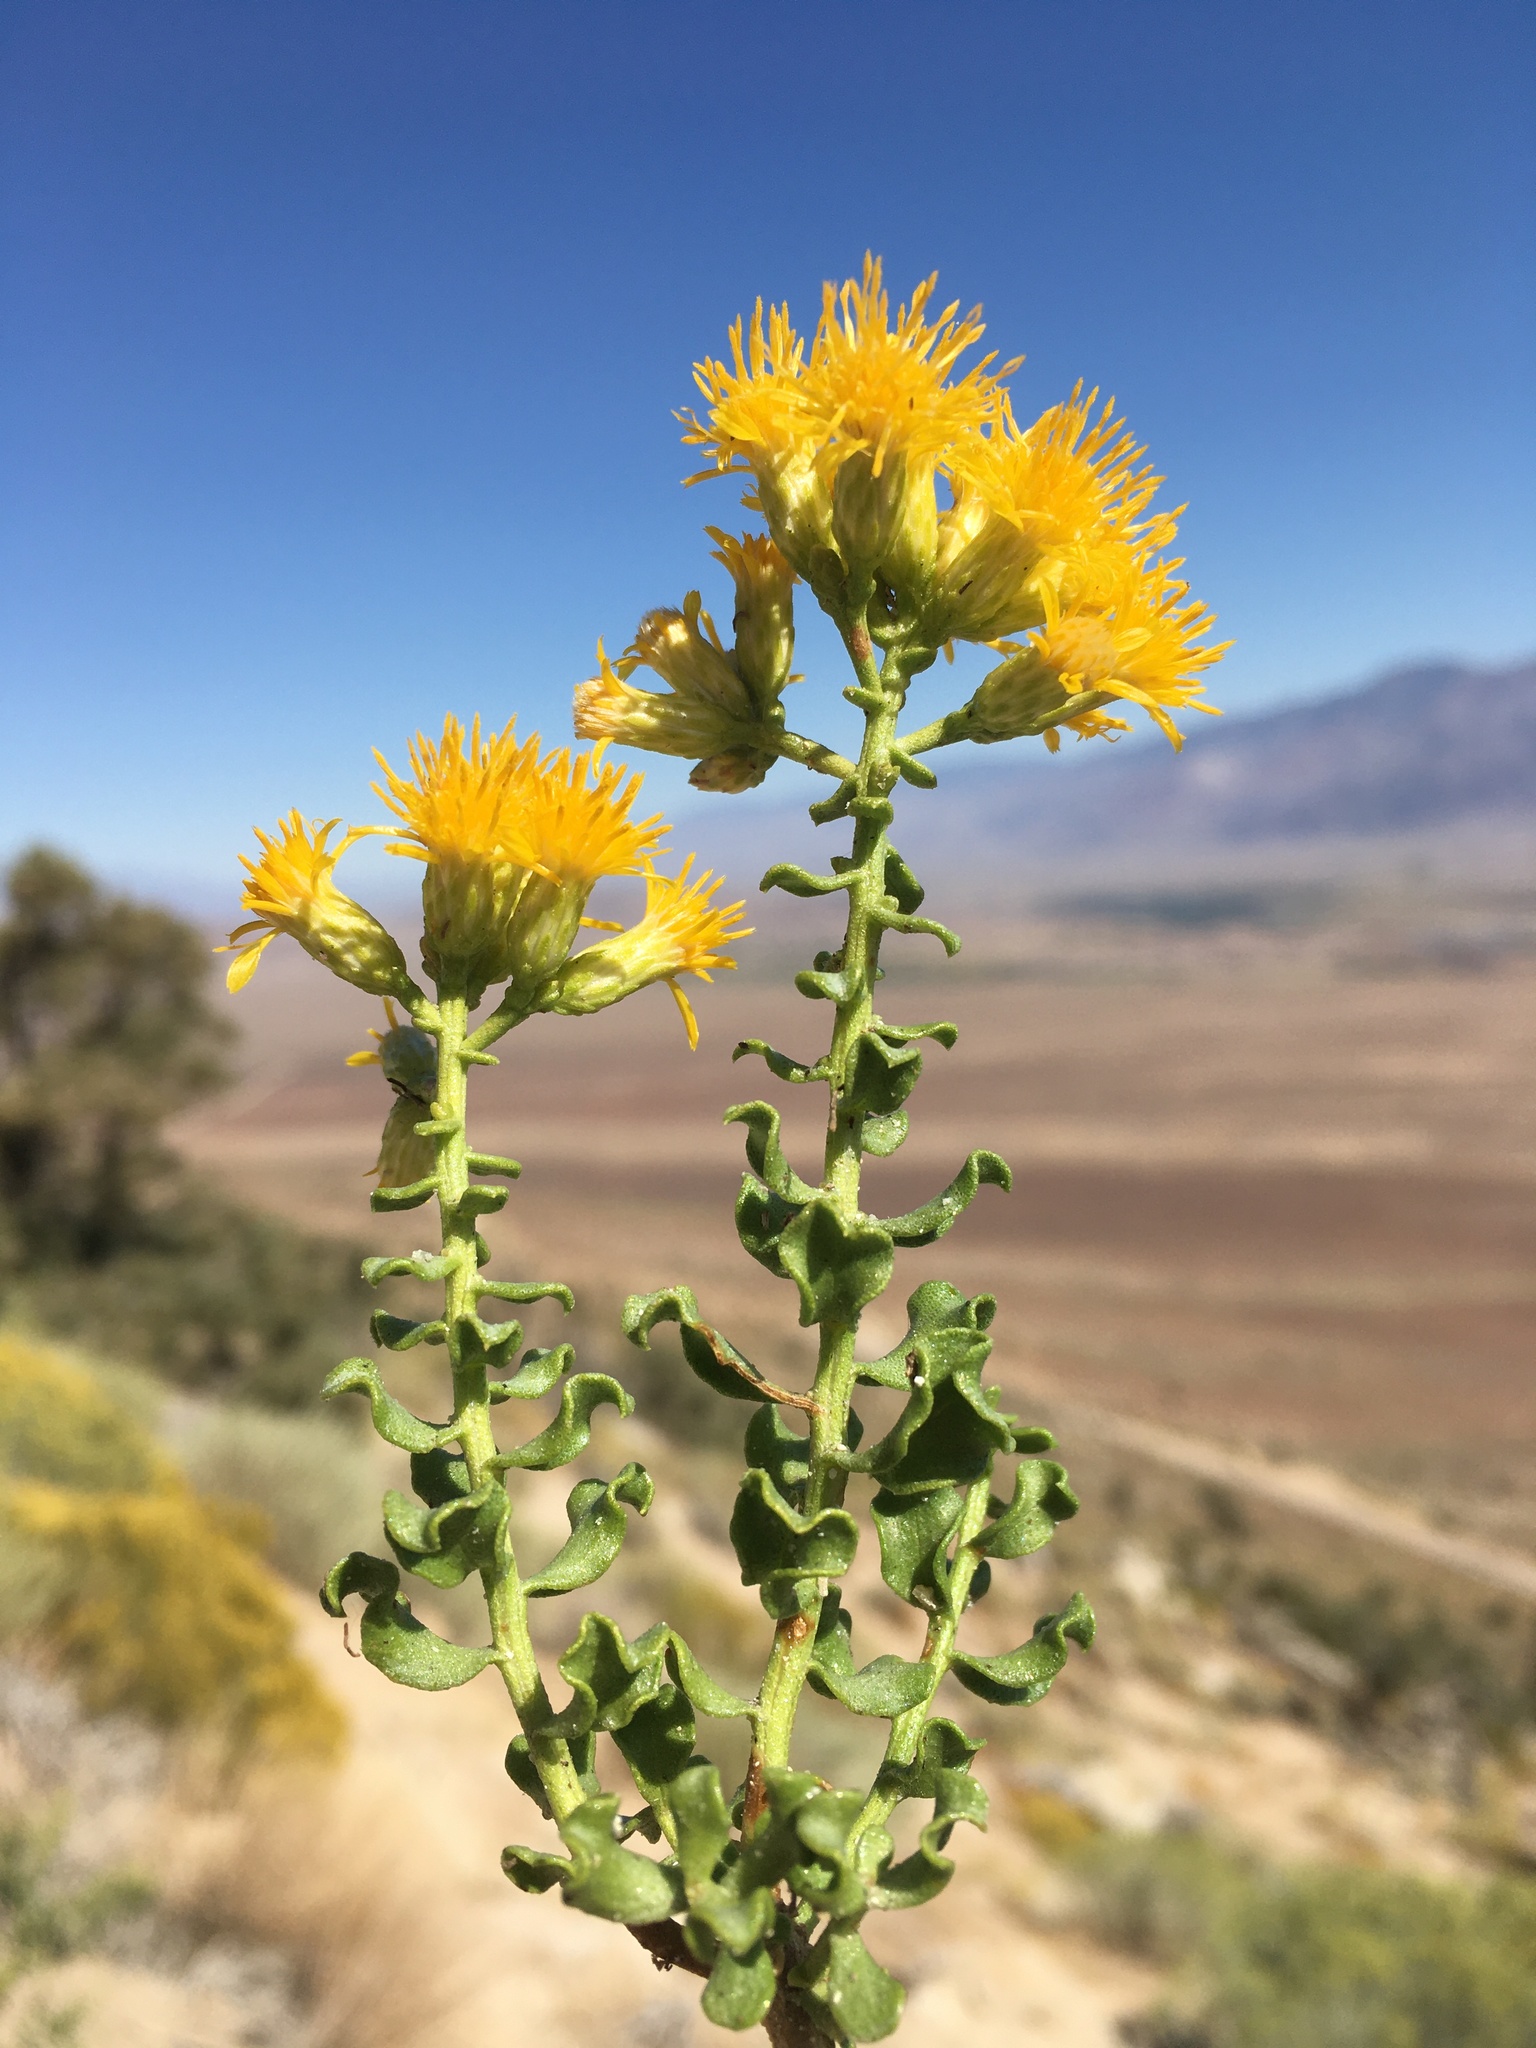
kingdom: Plantae
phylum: Tracheophyta
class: Magnoliopsida
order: Asterales
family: Asteraceae
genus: Ericameria
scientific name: Ericameria cuneata
